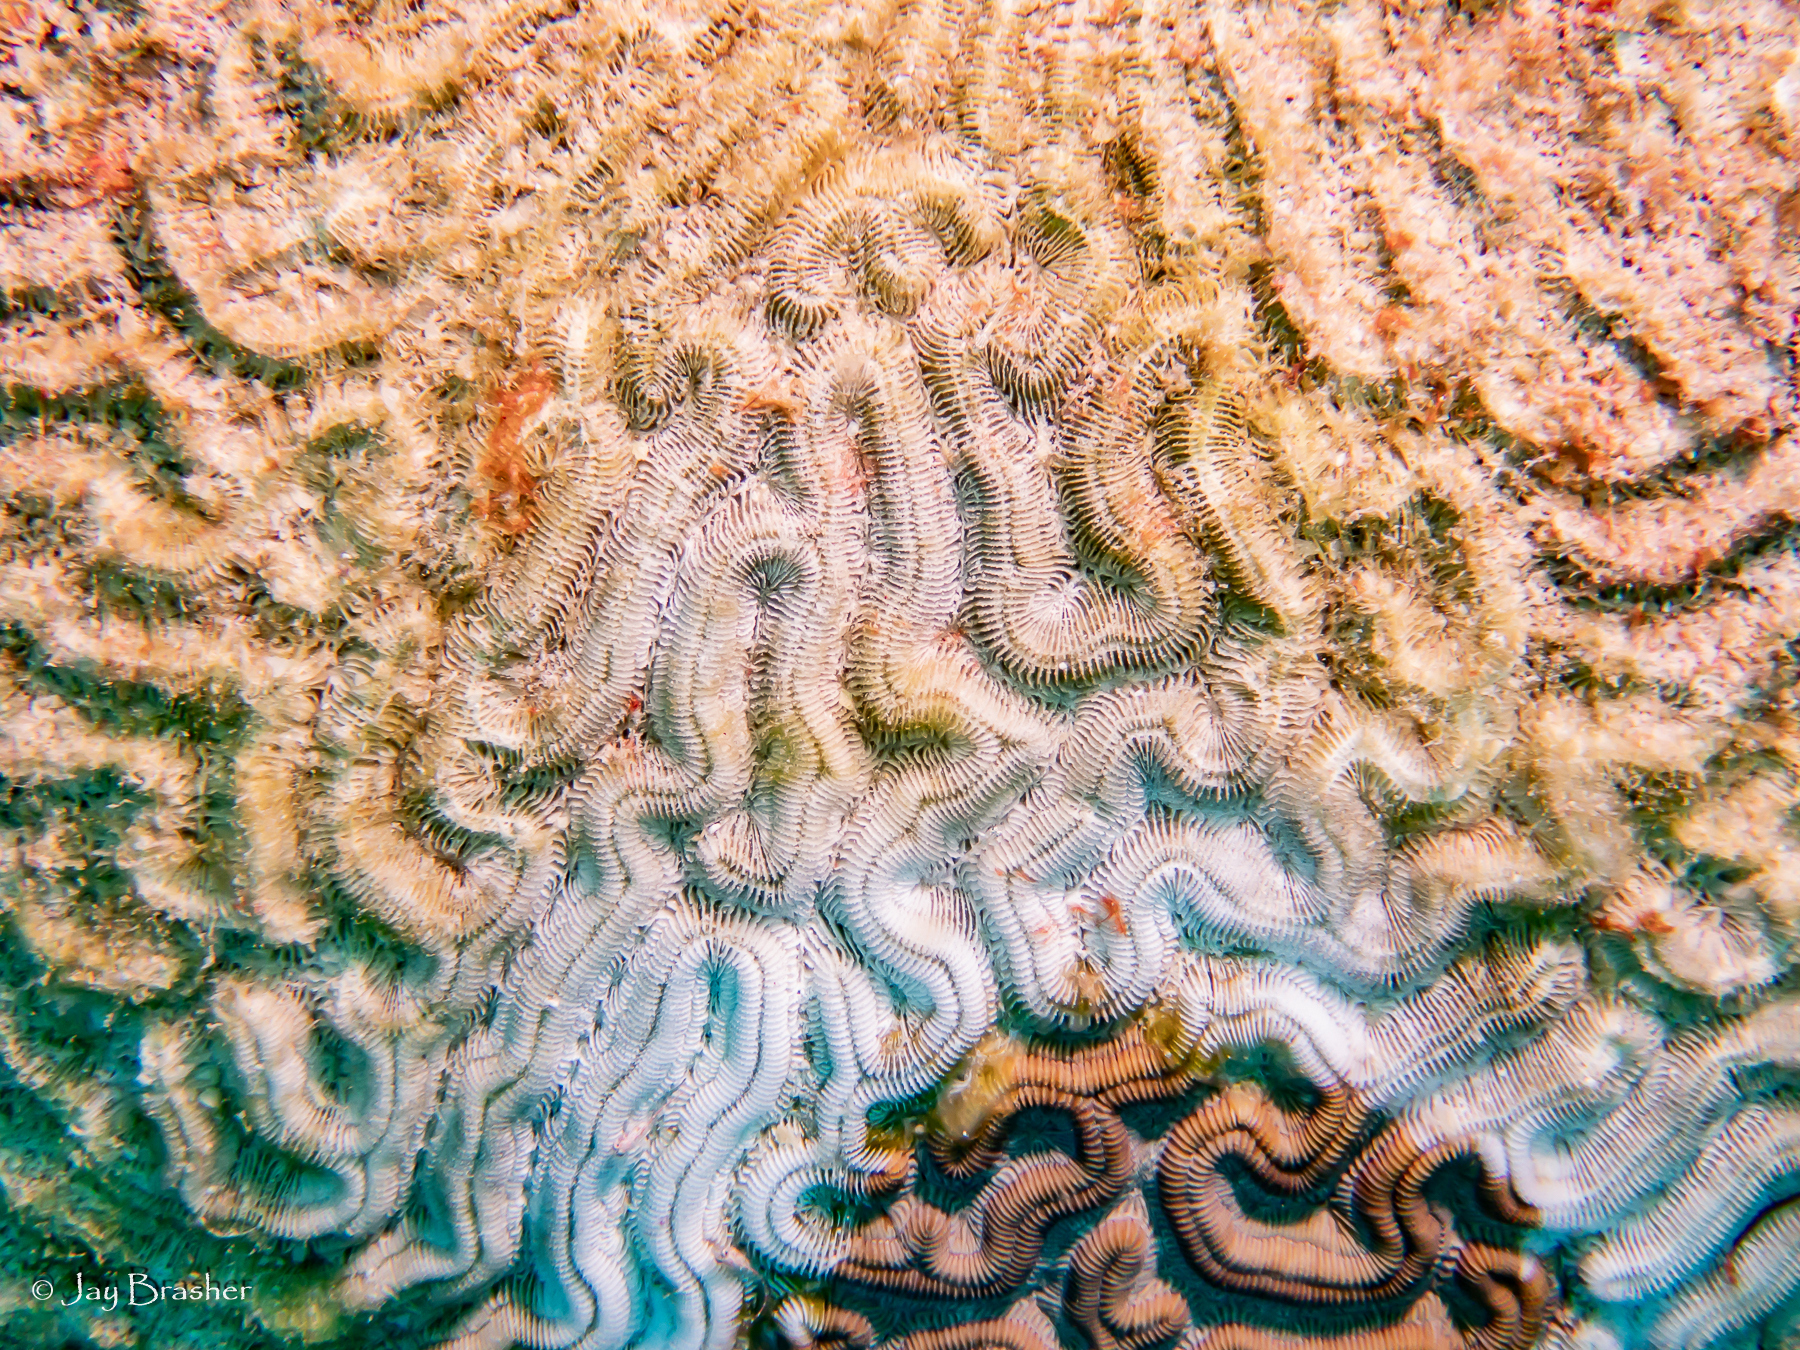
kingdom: Animalia
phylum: Cnidaria
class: Anthozoa
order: Scleractinia
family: Faviidae
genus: Colpophyllia
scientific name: Colpophyllia natans
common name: Boulder brain coral
